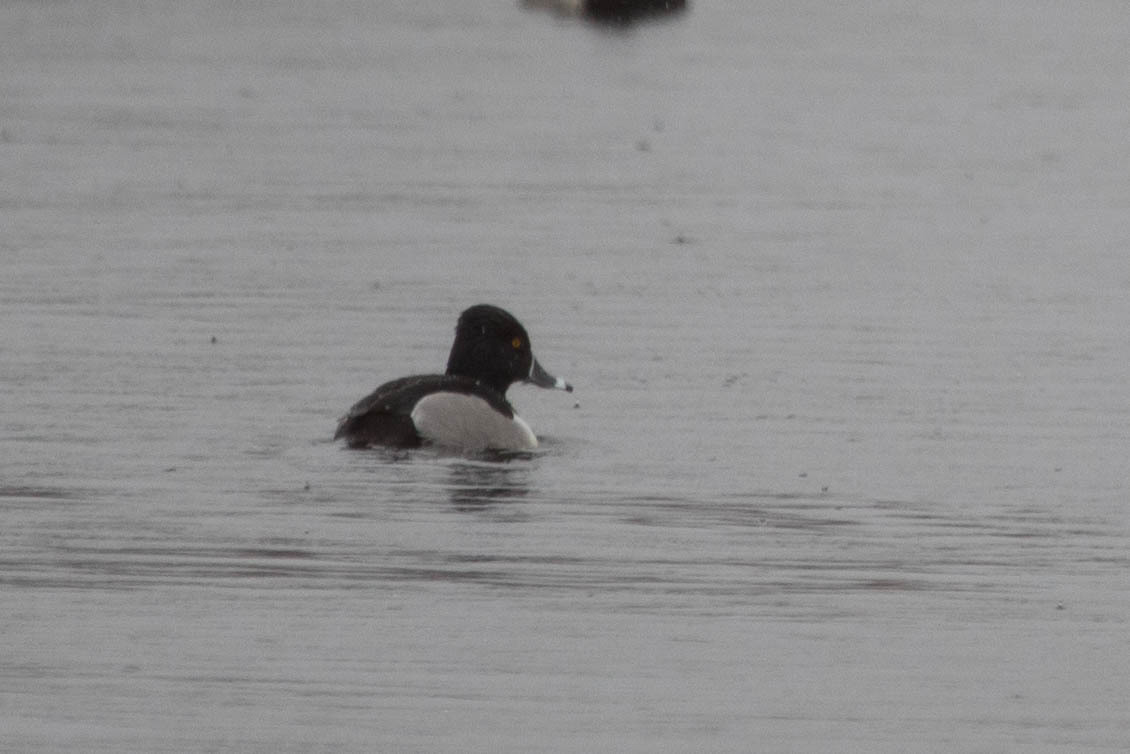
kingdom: Animalia
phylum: Chordata
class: Aves
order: Anseriformes
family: Anatidae
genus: Aythya
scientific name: Aythya collaris
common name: Ring-necked duck
